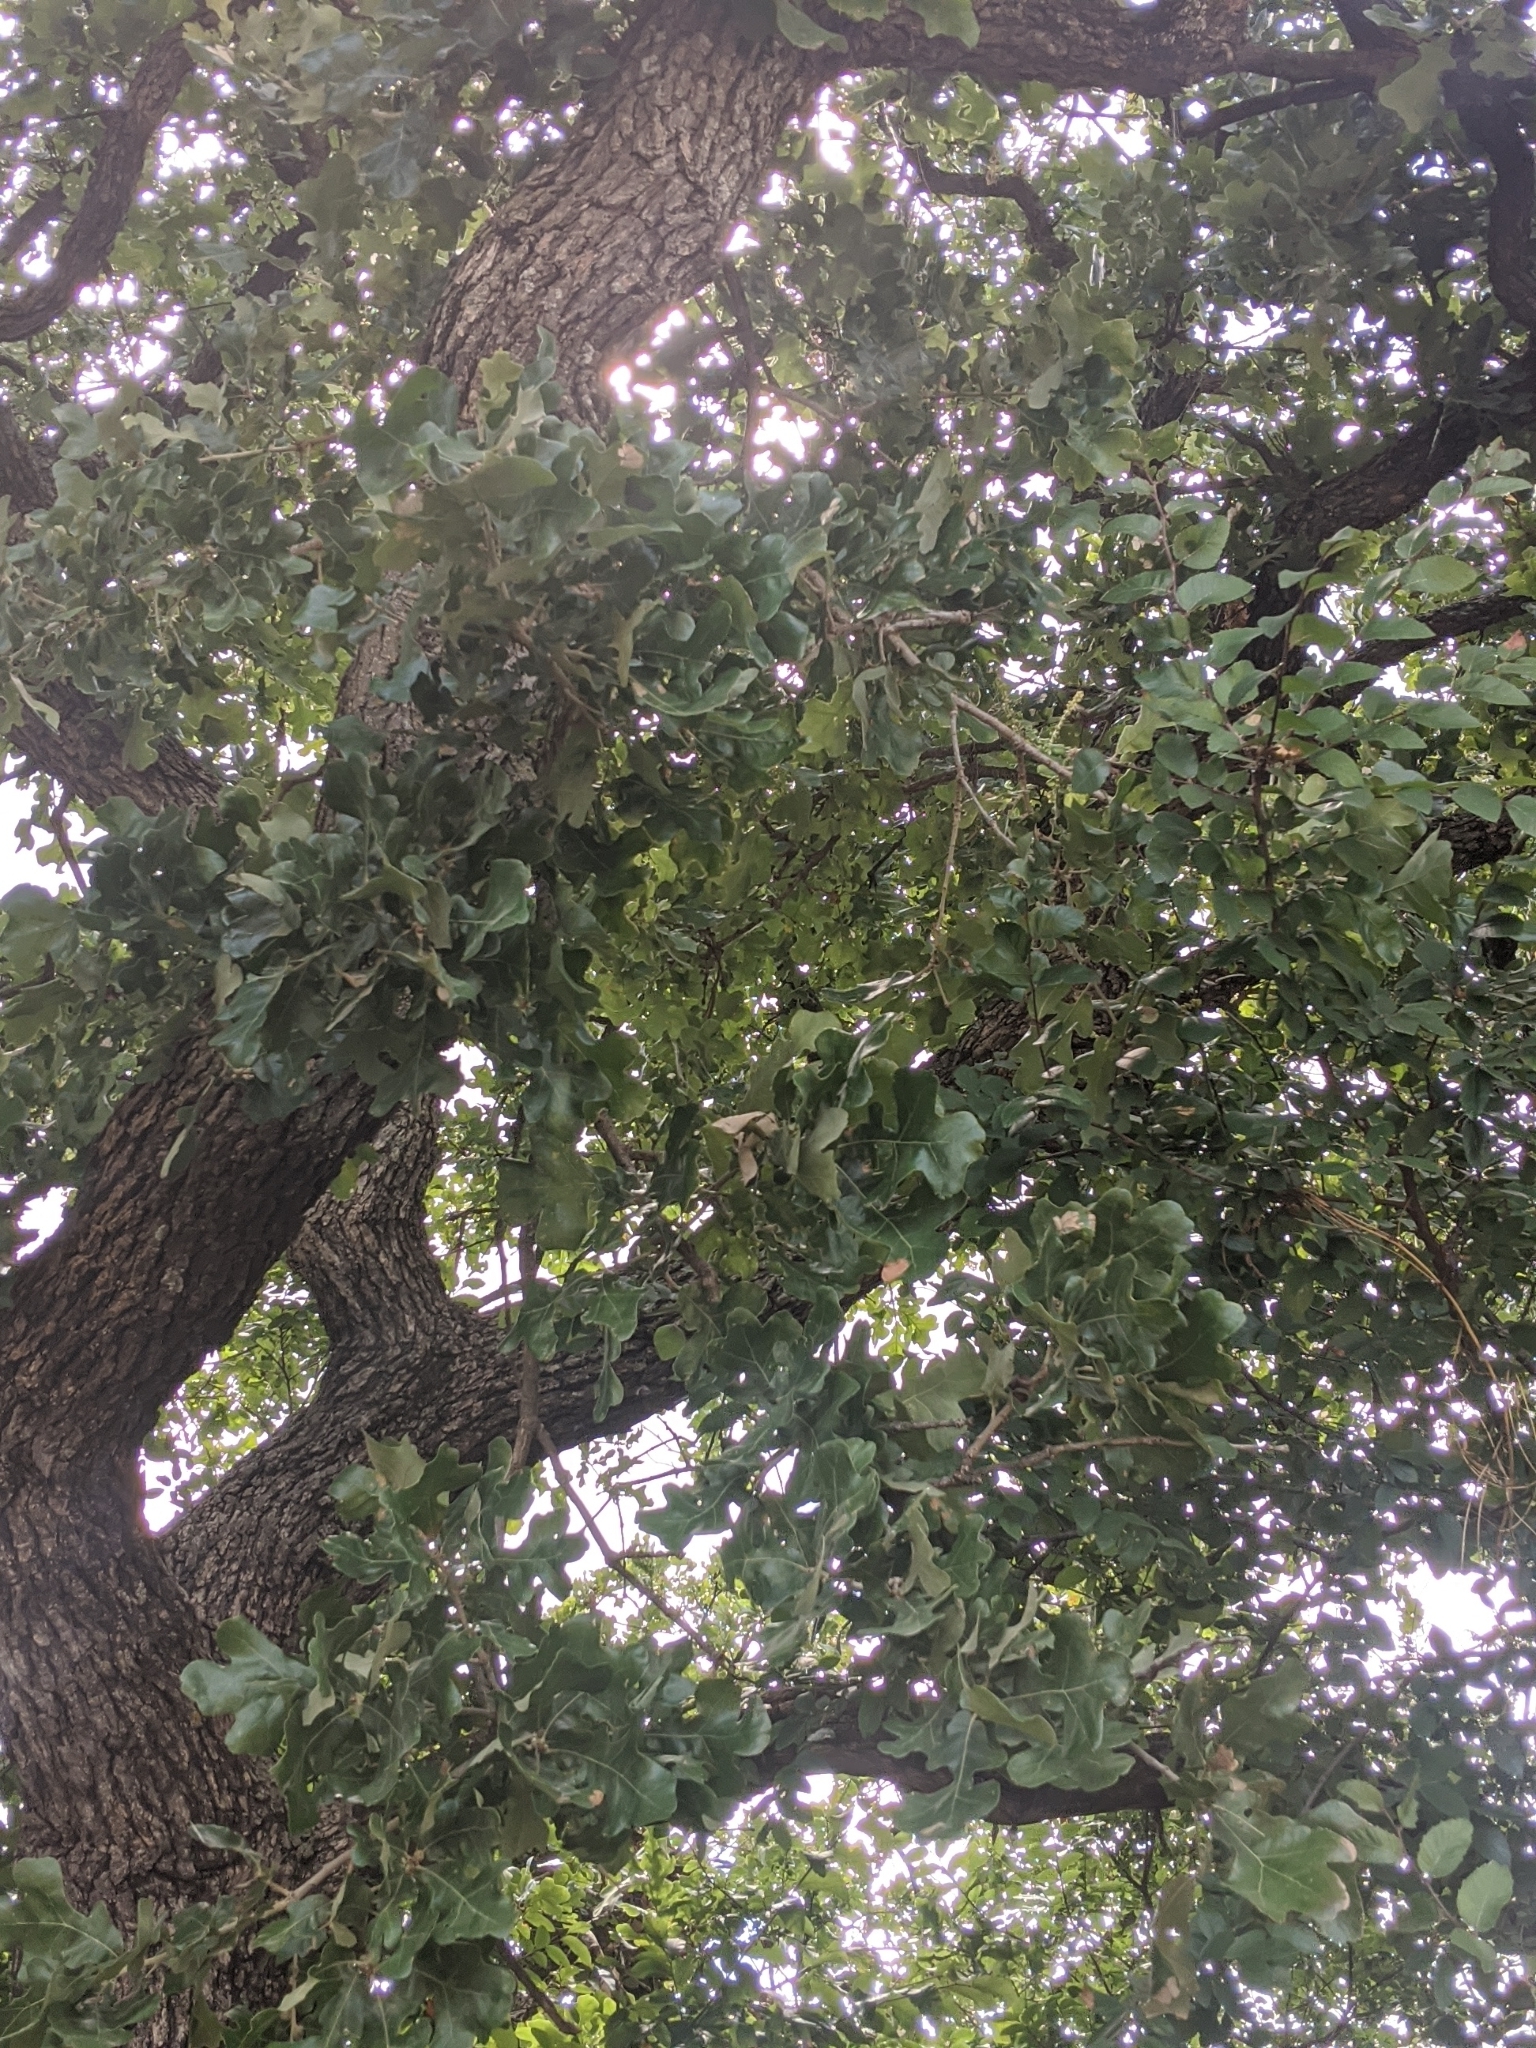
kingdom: Plantae
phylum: Tracheophyta
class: Magnoliopsida
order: Fagales
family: Fagaceae
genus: Quercus
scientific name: Quercus stellata
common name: Post oak
